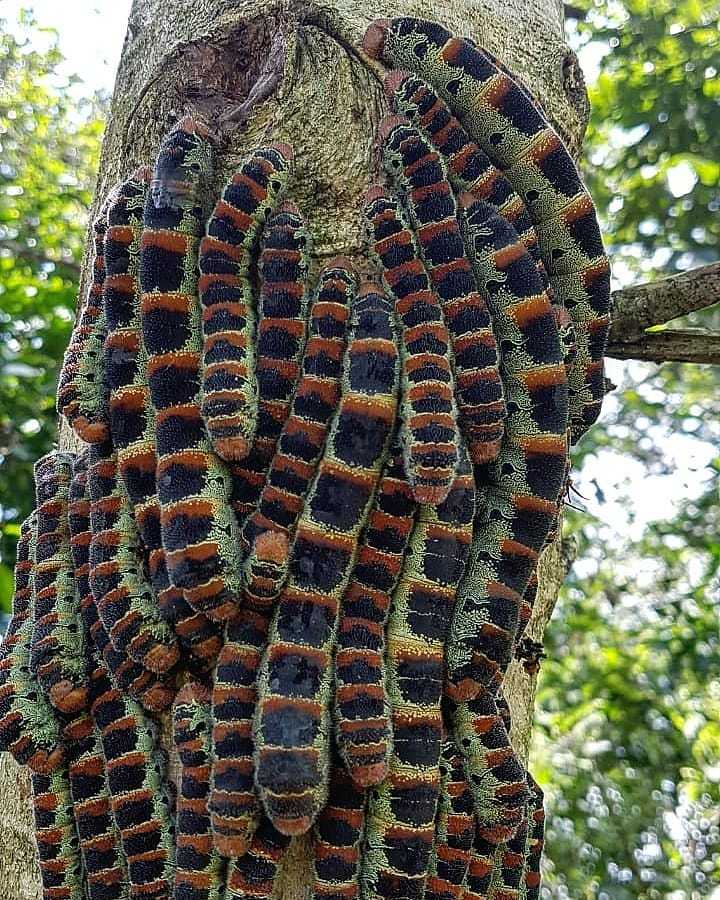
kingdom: Animalia
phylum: Arthropoda
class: Insecta
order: Lepidoptera
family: Saturniidae
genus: Arsenura
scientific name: Arsenura armida
